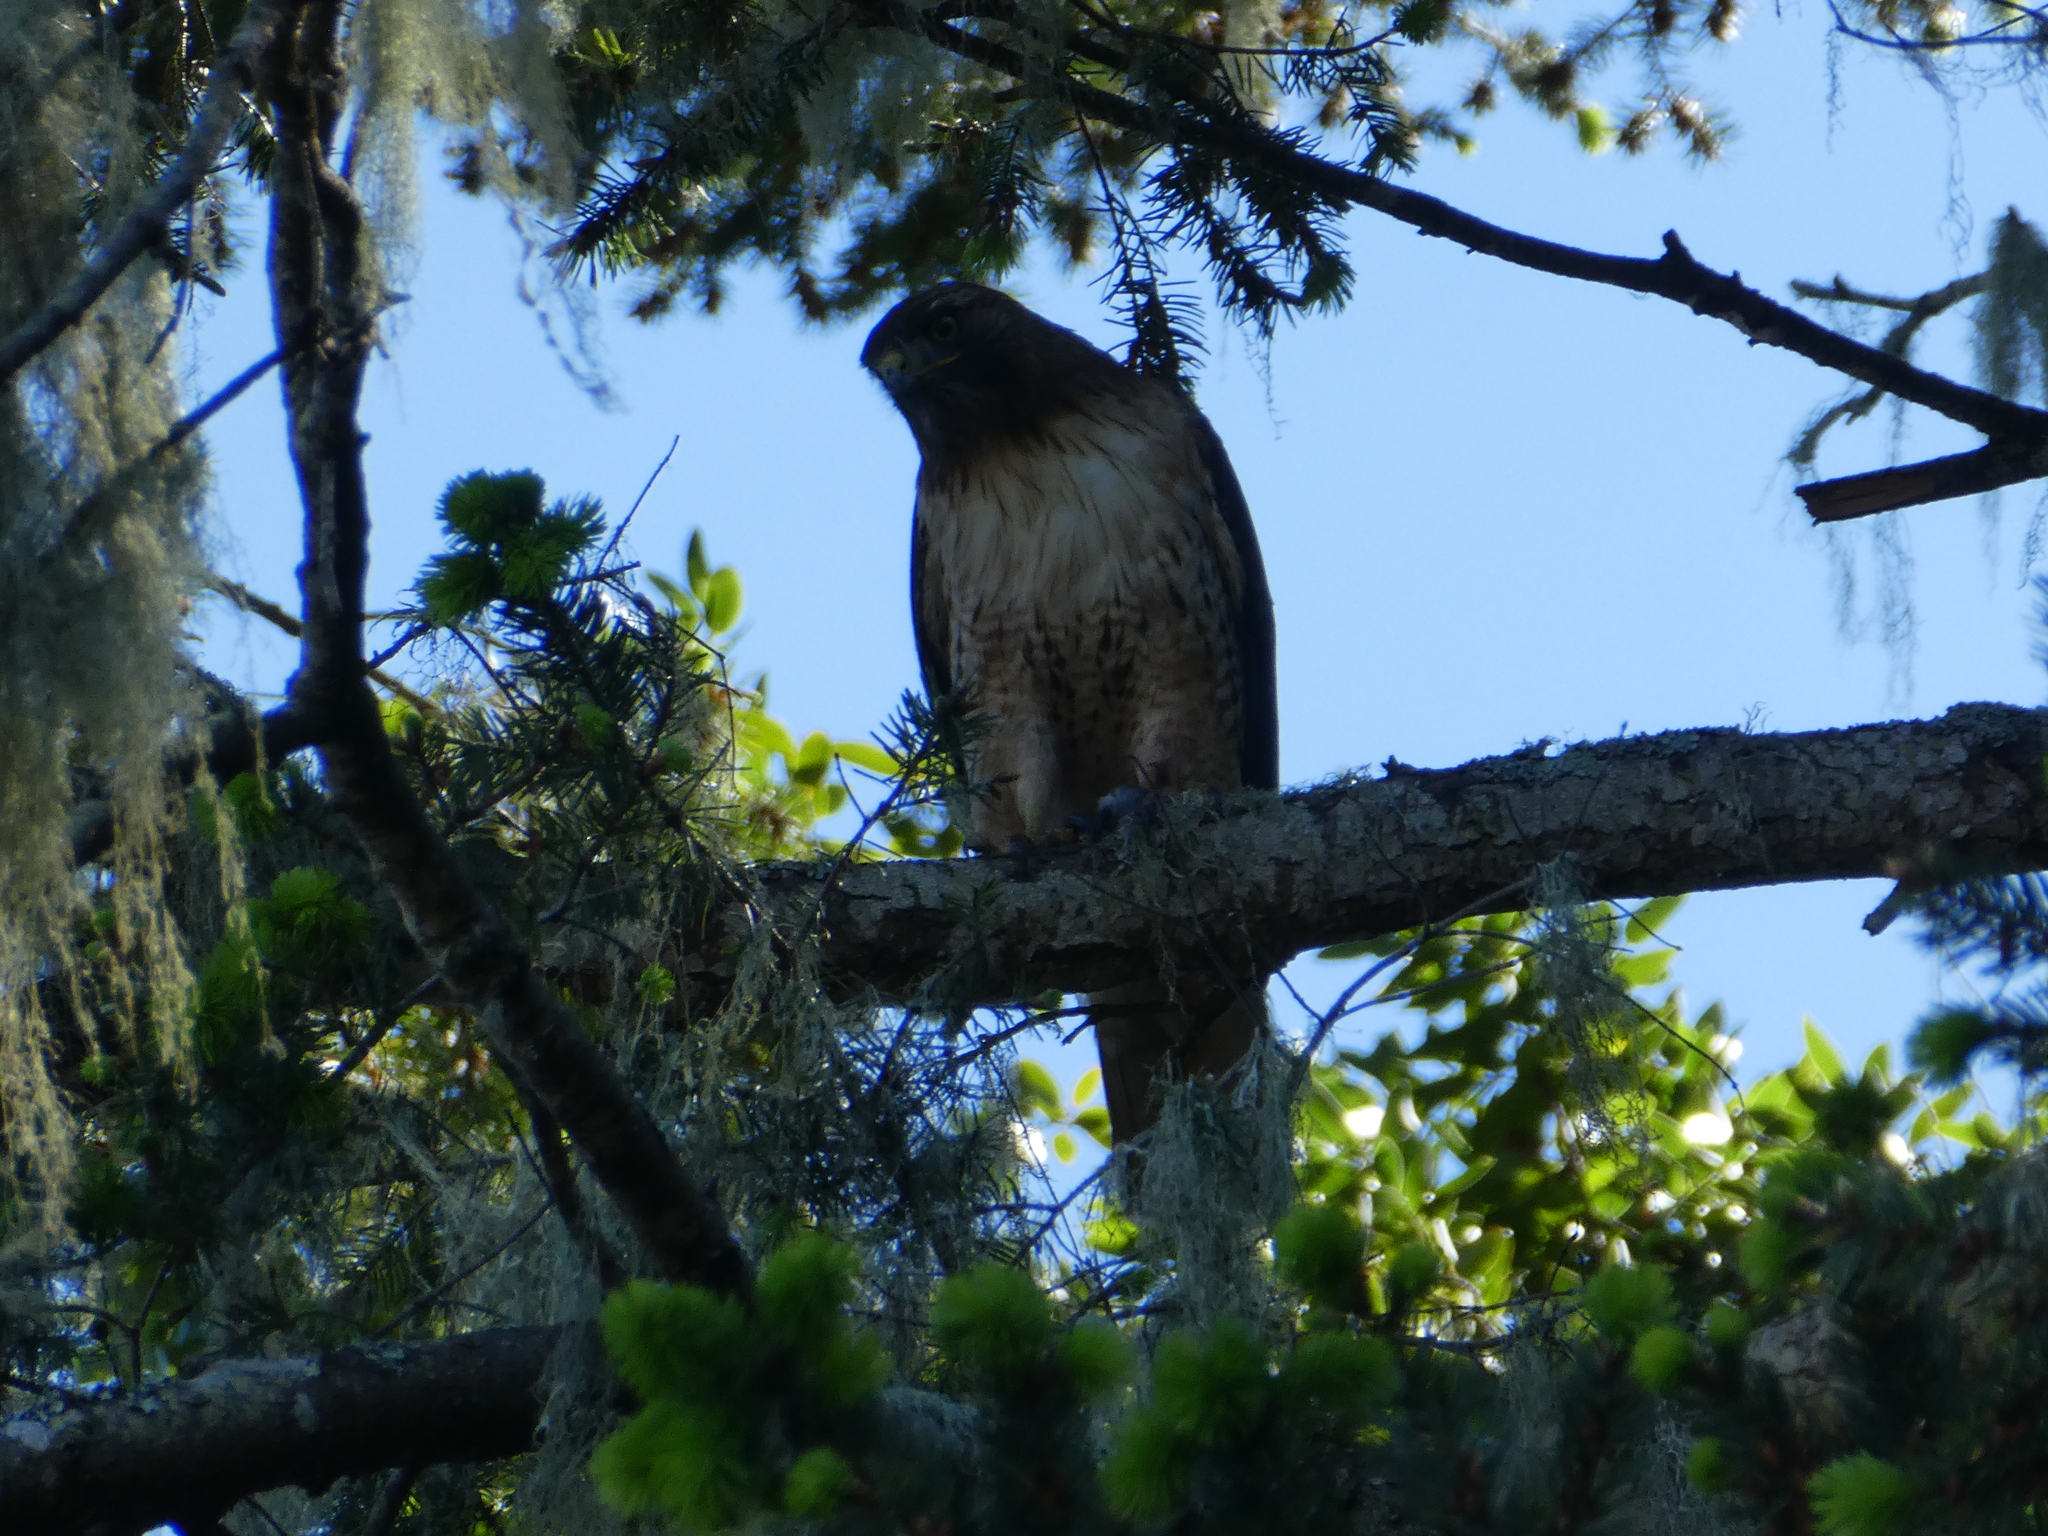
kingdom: Animalia
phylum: Chordata
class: Aves
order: Accipitriformes
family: Accipitridae
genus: Buteo
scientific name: Buteo jamaicensis
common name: Red-tailed hawk
